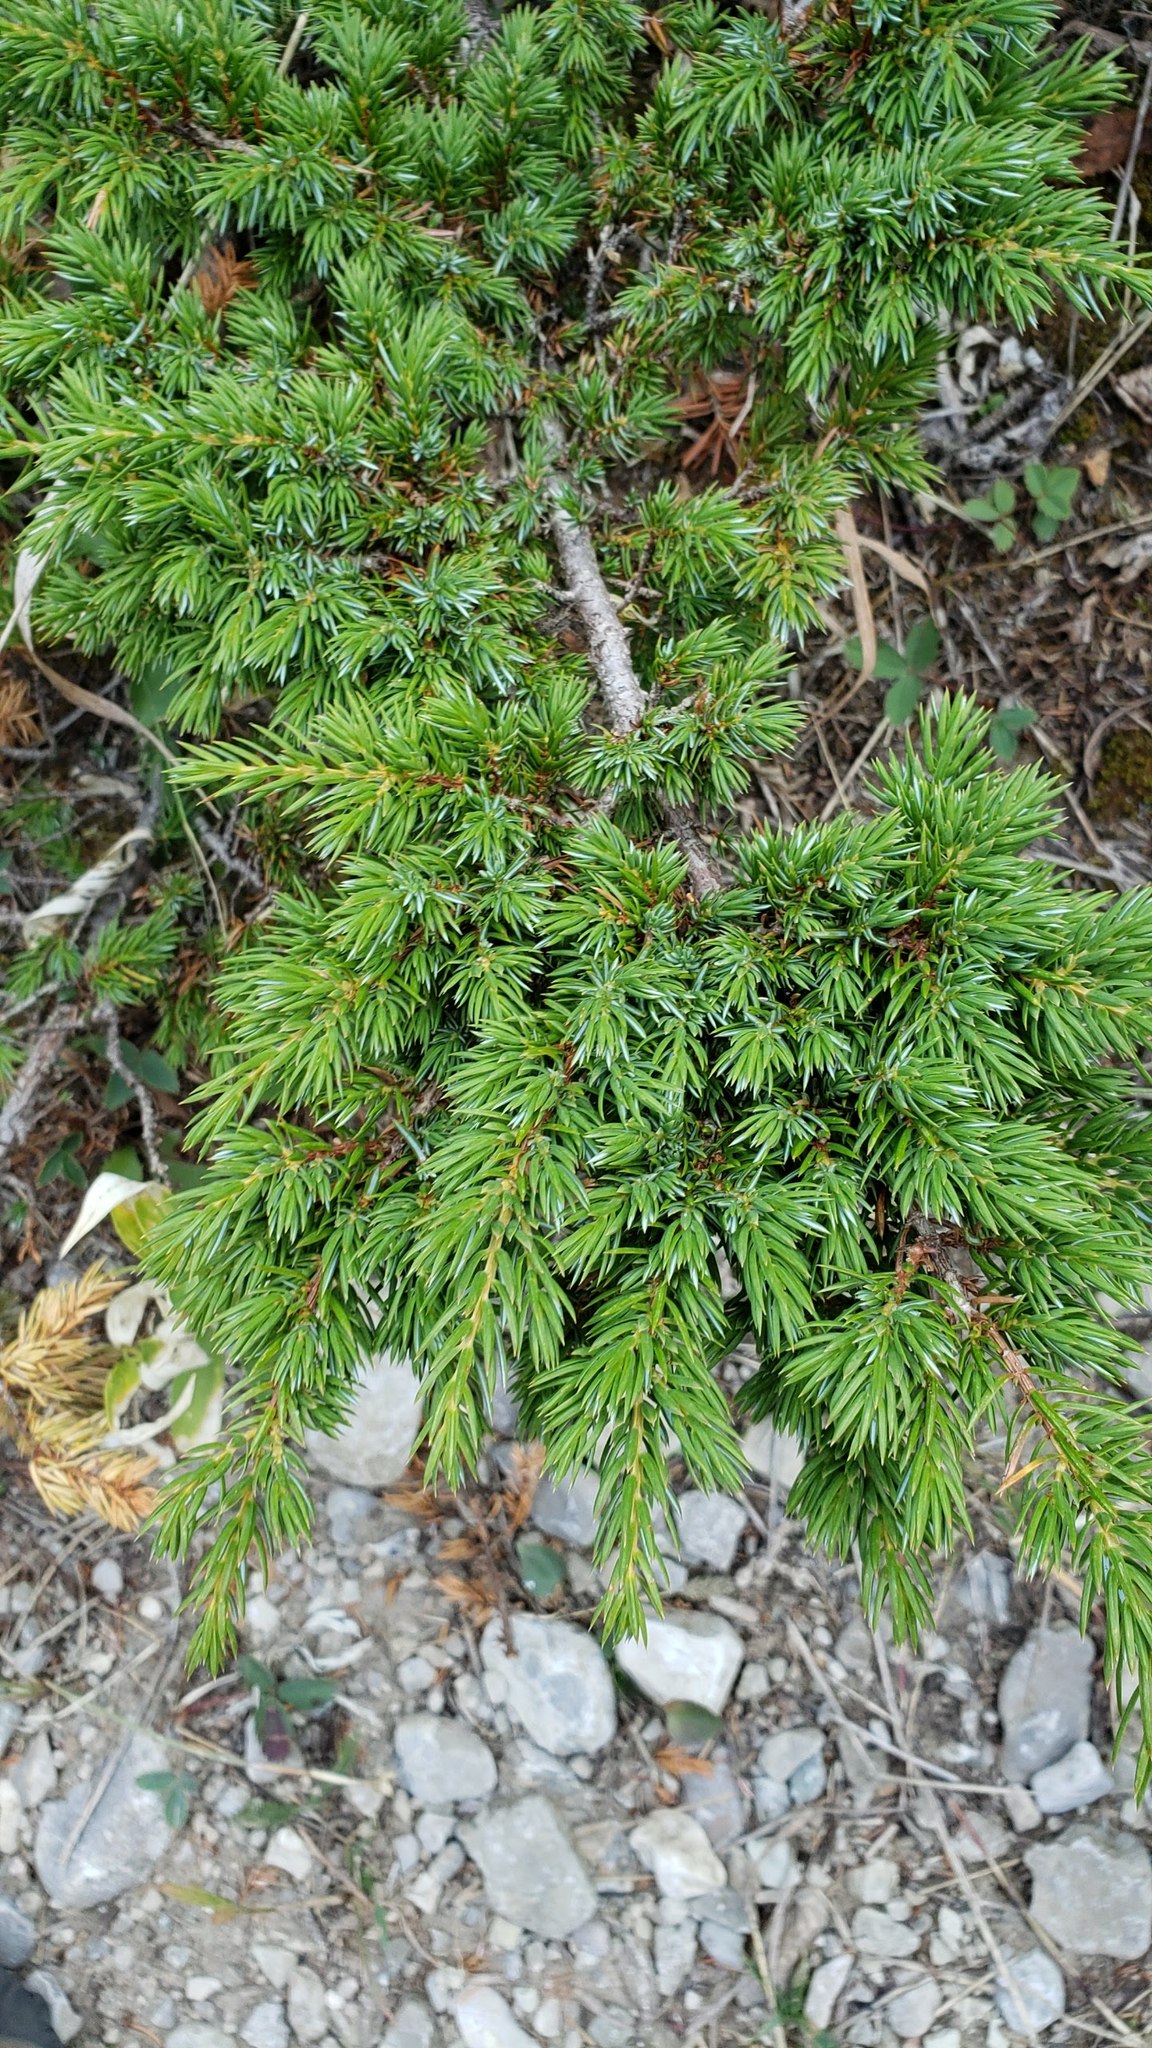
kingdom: Plantae
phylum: Tracheophyta
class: Pinopsida
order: Pinales
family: Cupressaceae
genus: Juniperus
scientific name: Juniperus communis
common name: Common juniper
